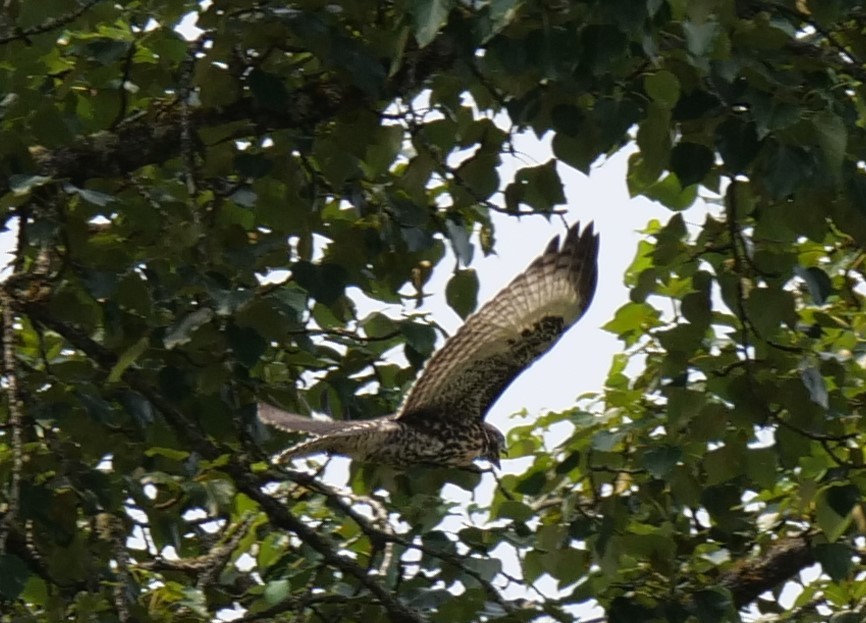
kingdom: Animalia
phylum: Chordata
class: Aves
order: Accipitriformes
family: Accipitridae
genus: Buteo
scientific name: Buteo jamaicensis
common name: Red-tailed hawk
